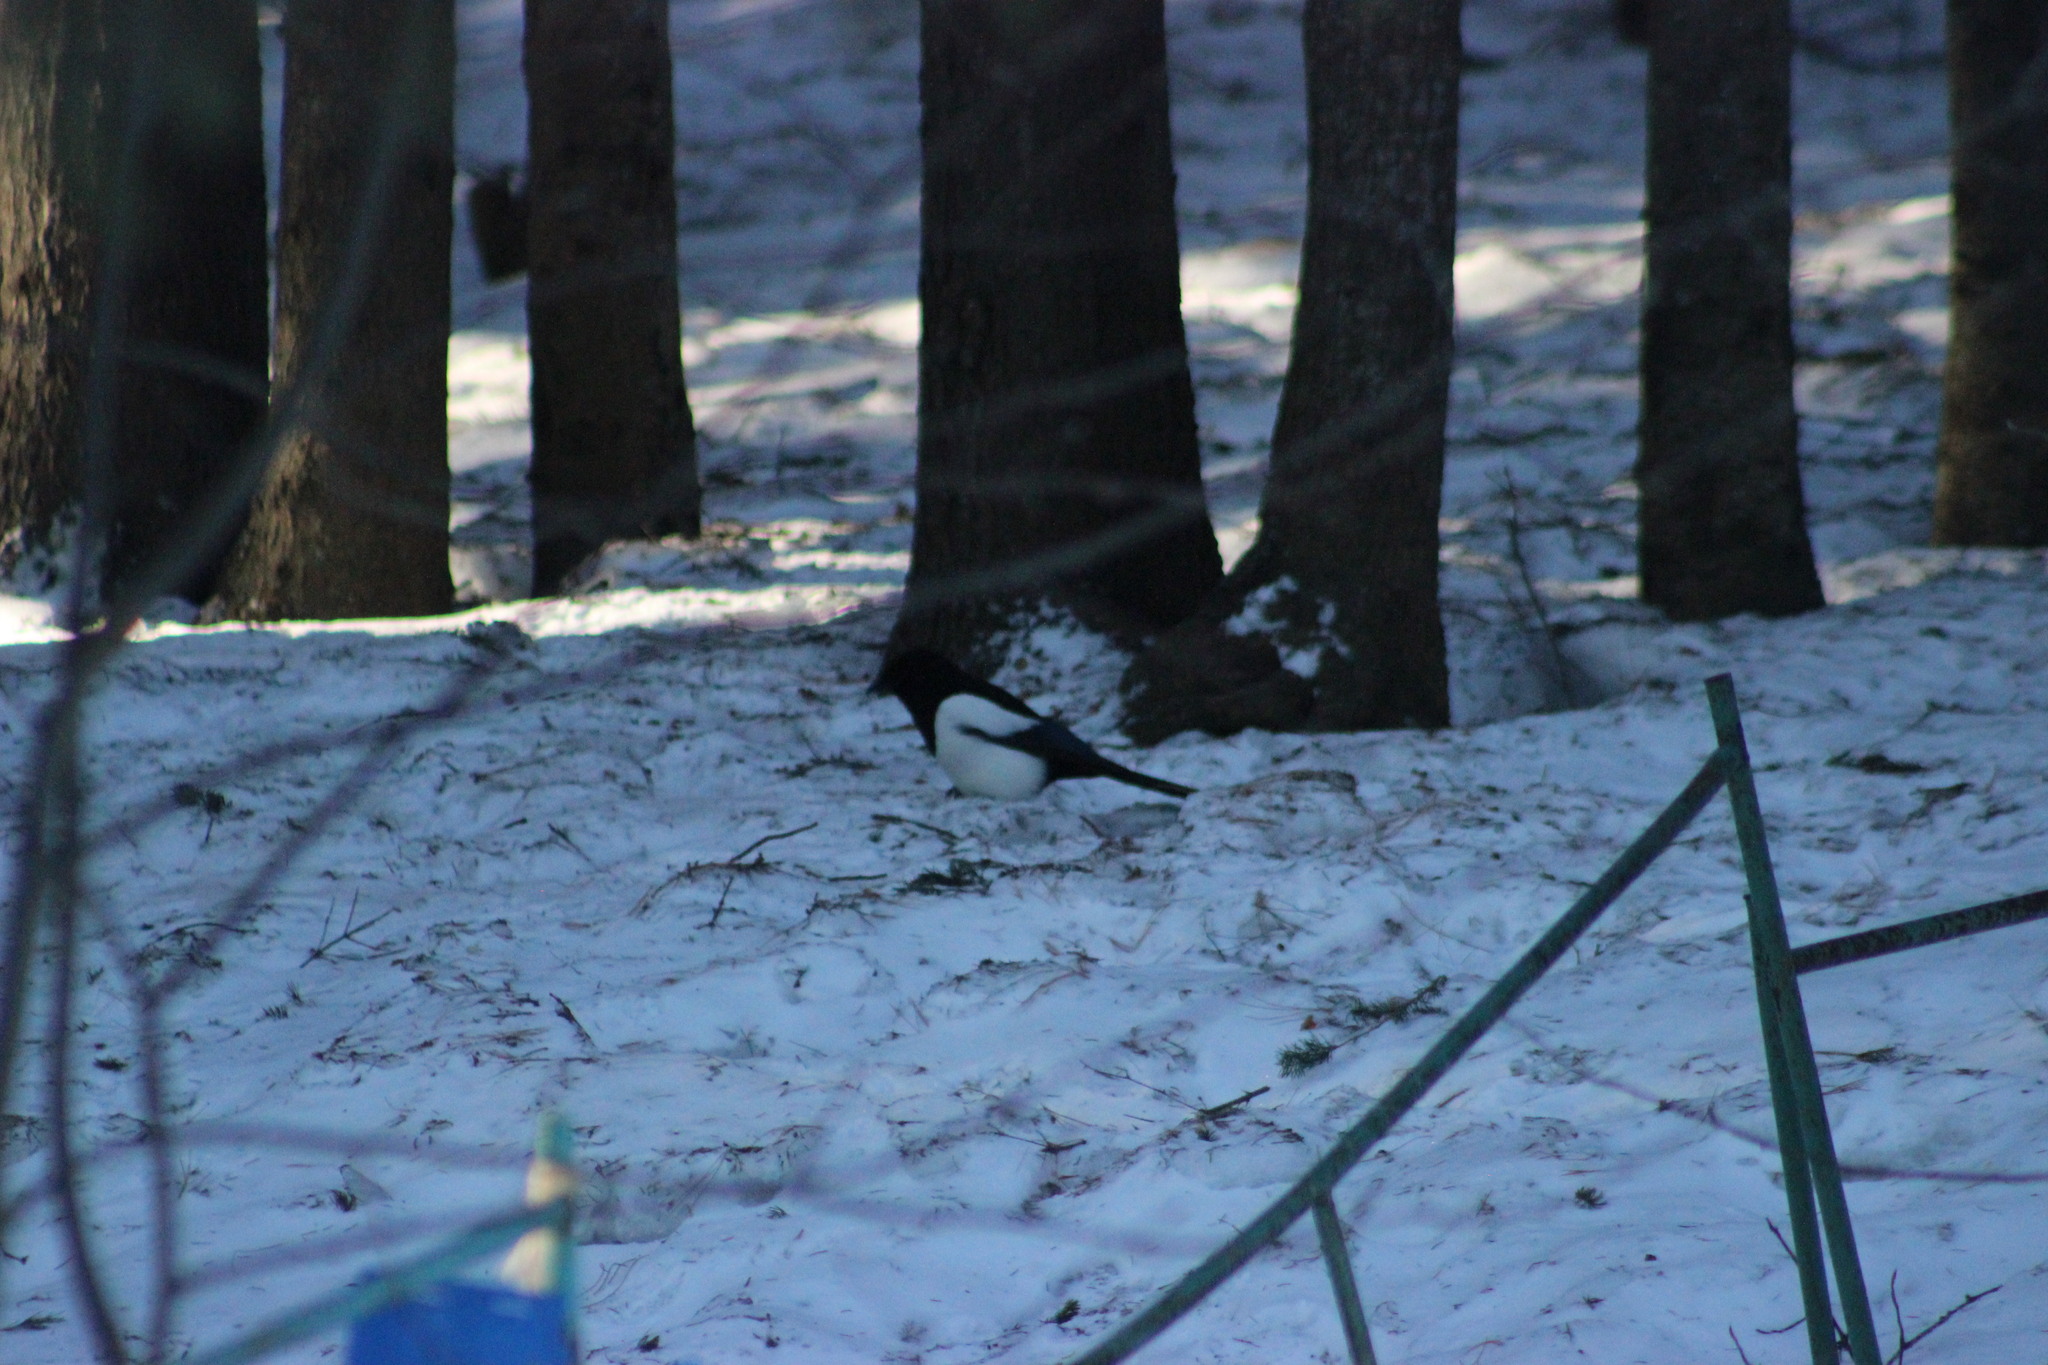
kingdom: Animalia
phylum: Chordata
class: Aves
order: Passeriformes
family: Corvidae
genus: Pica
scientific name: Pica pica
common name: Eurasian magpie
